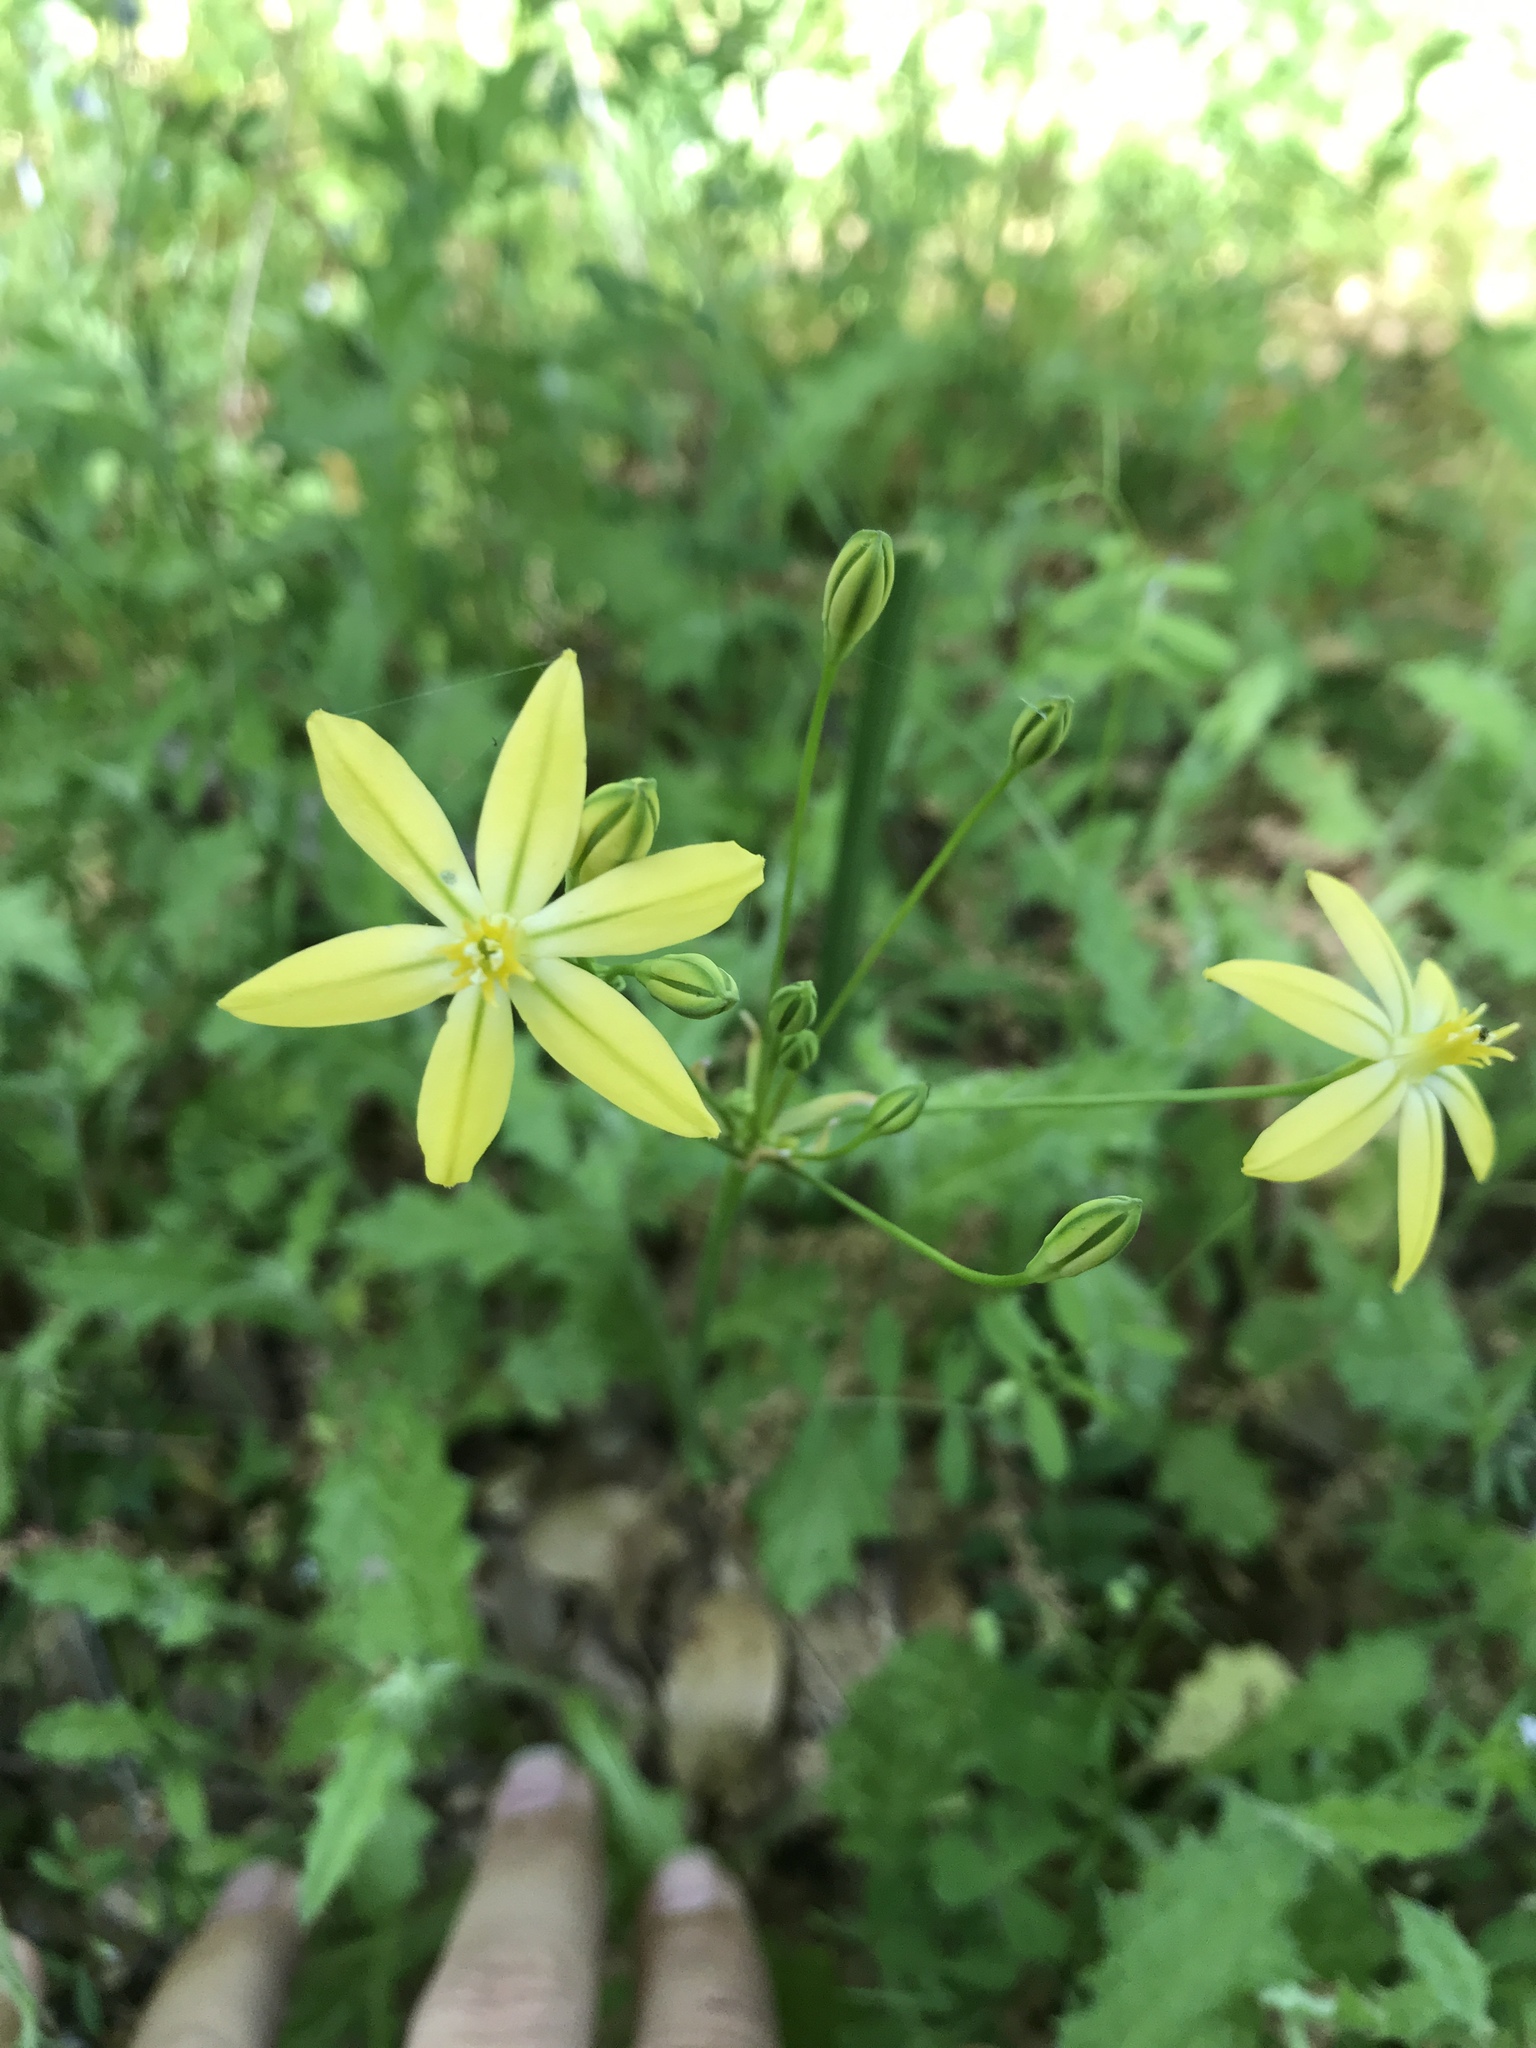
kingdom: Plantae
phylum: Tracheophyta
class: Liliopsida
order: Asparagales
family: Asparagaceae
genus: Triteleia
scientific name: Triteleia ixioides
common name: Yellow-brodiaea
